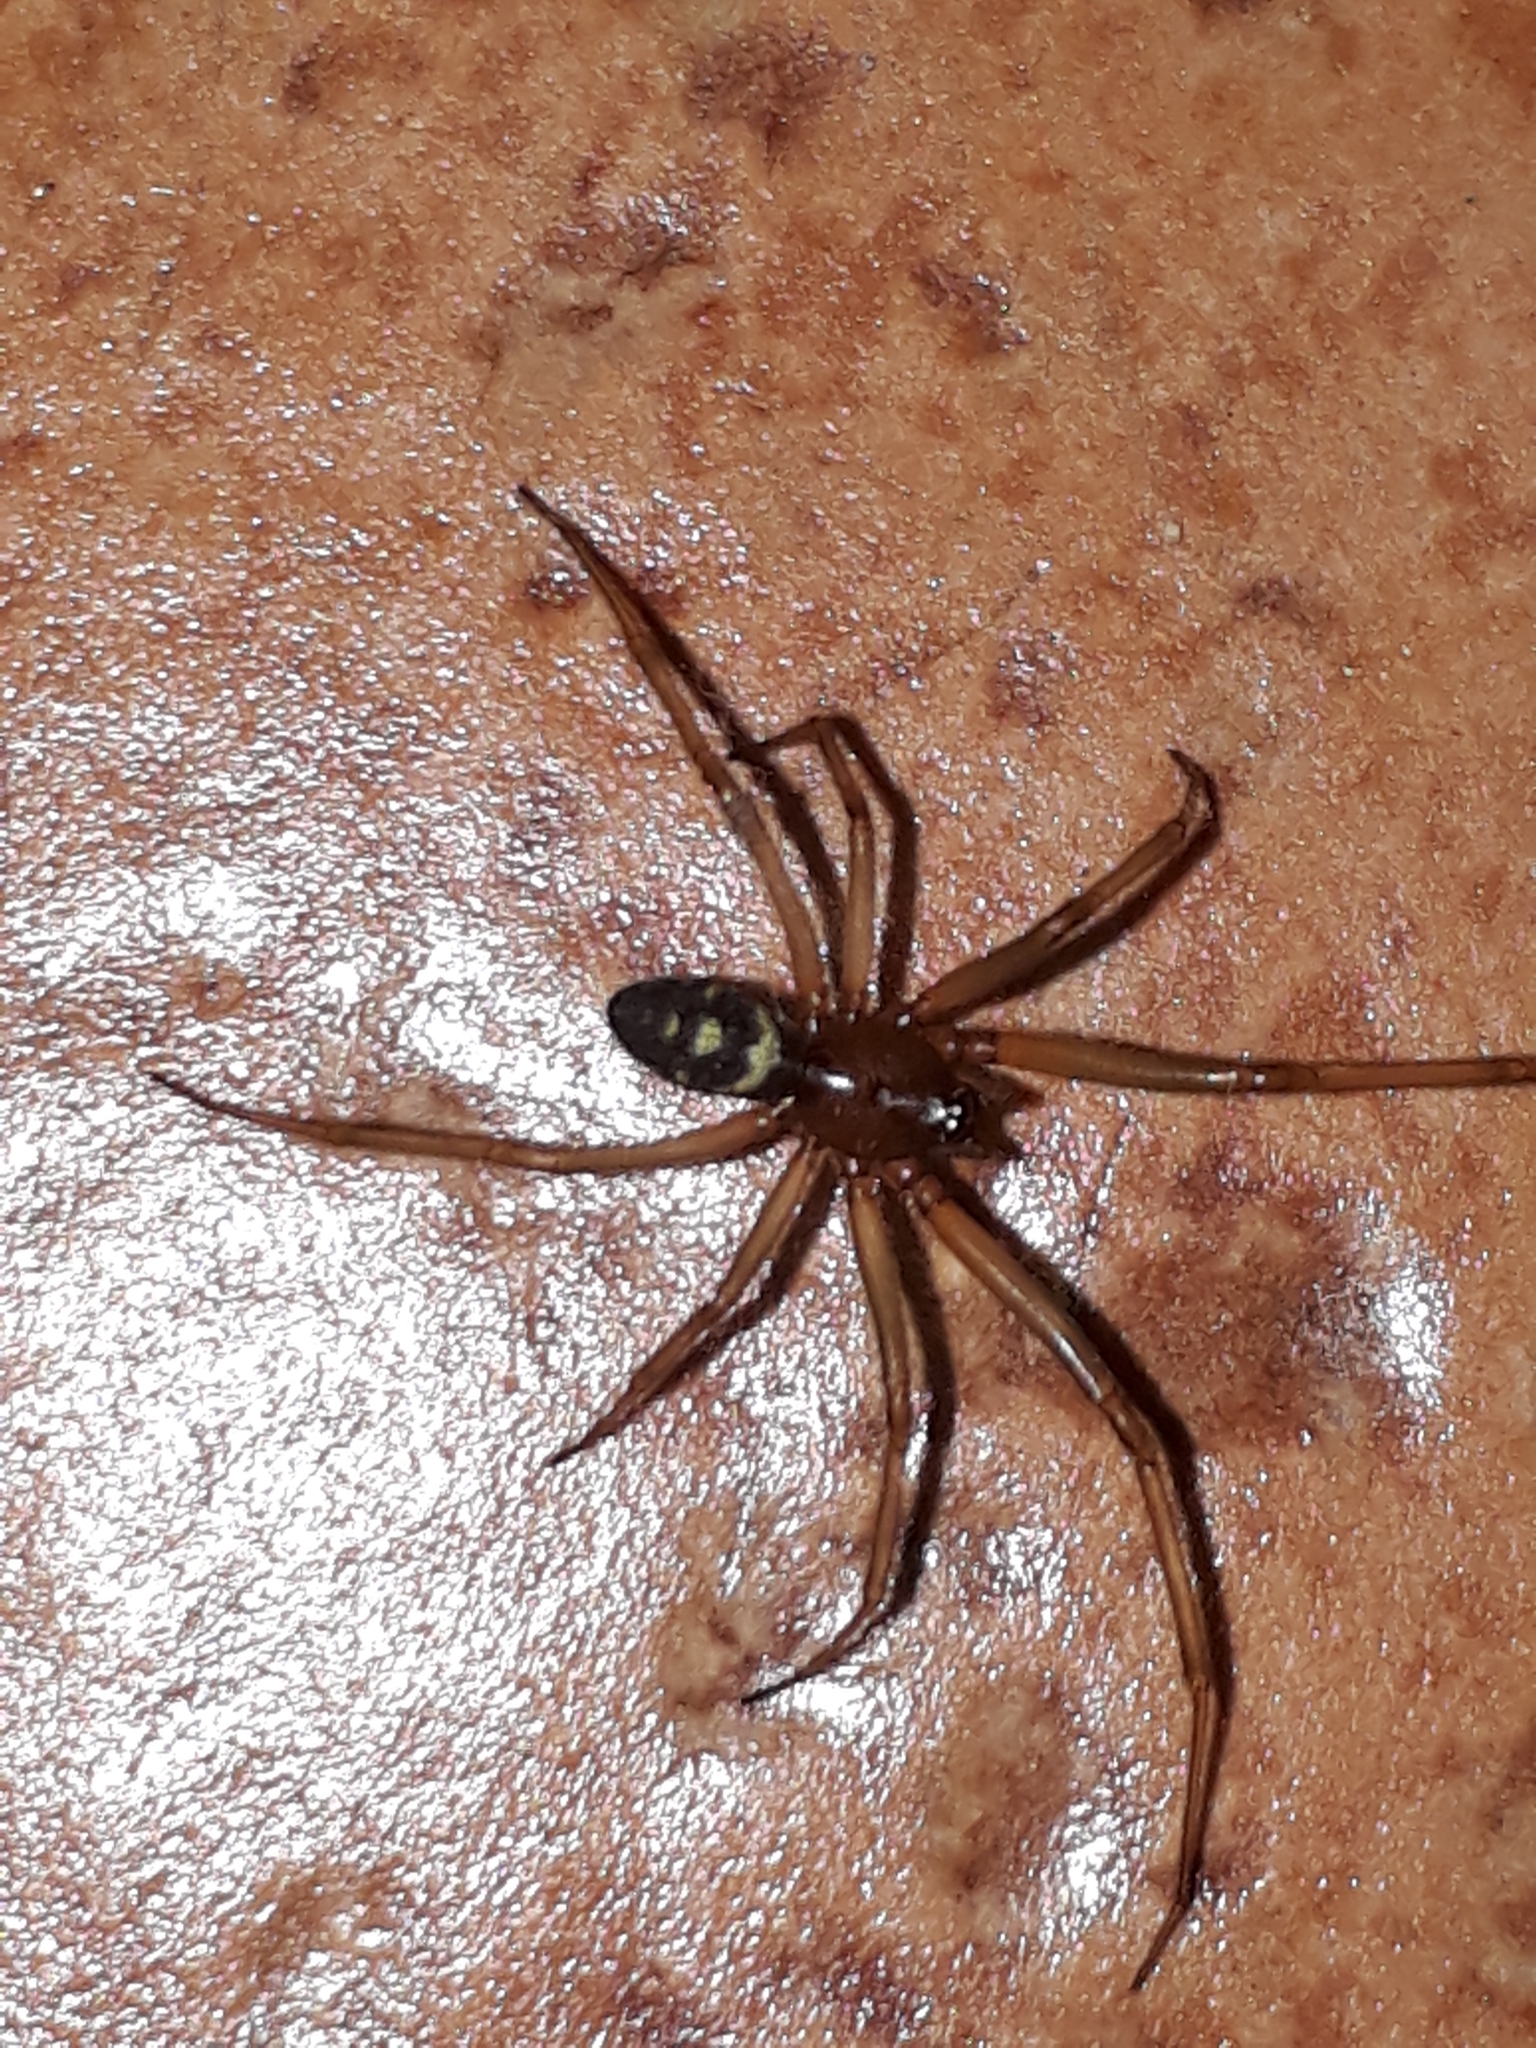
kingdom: Animalia
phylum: Arthropoda
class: Arachnida
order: Araneae
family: Theridiidae
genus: Steatoda
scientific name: Steatoda grossa
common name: False black widow
